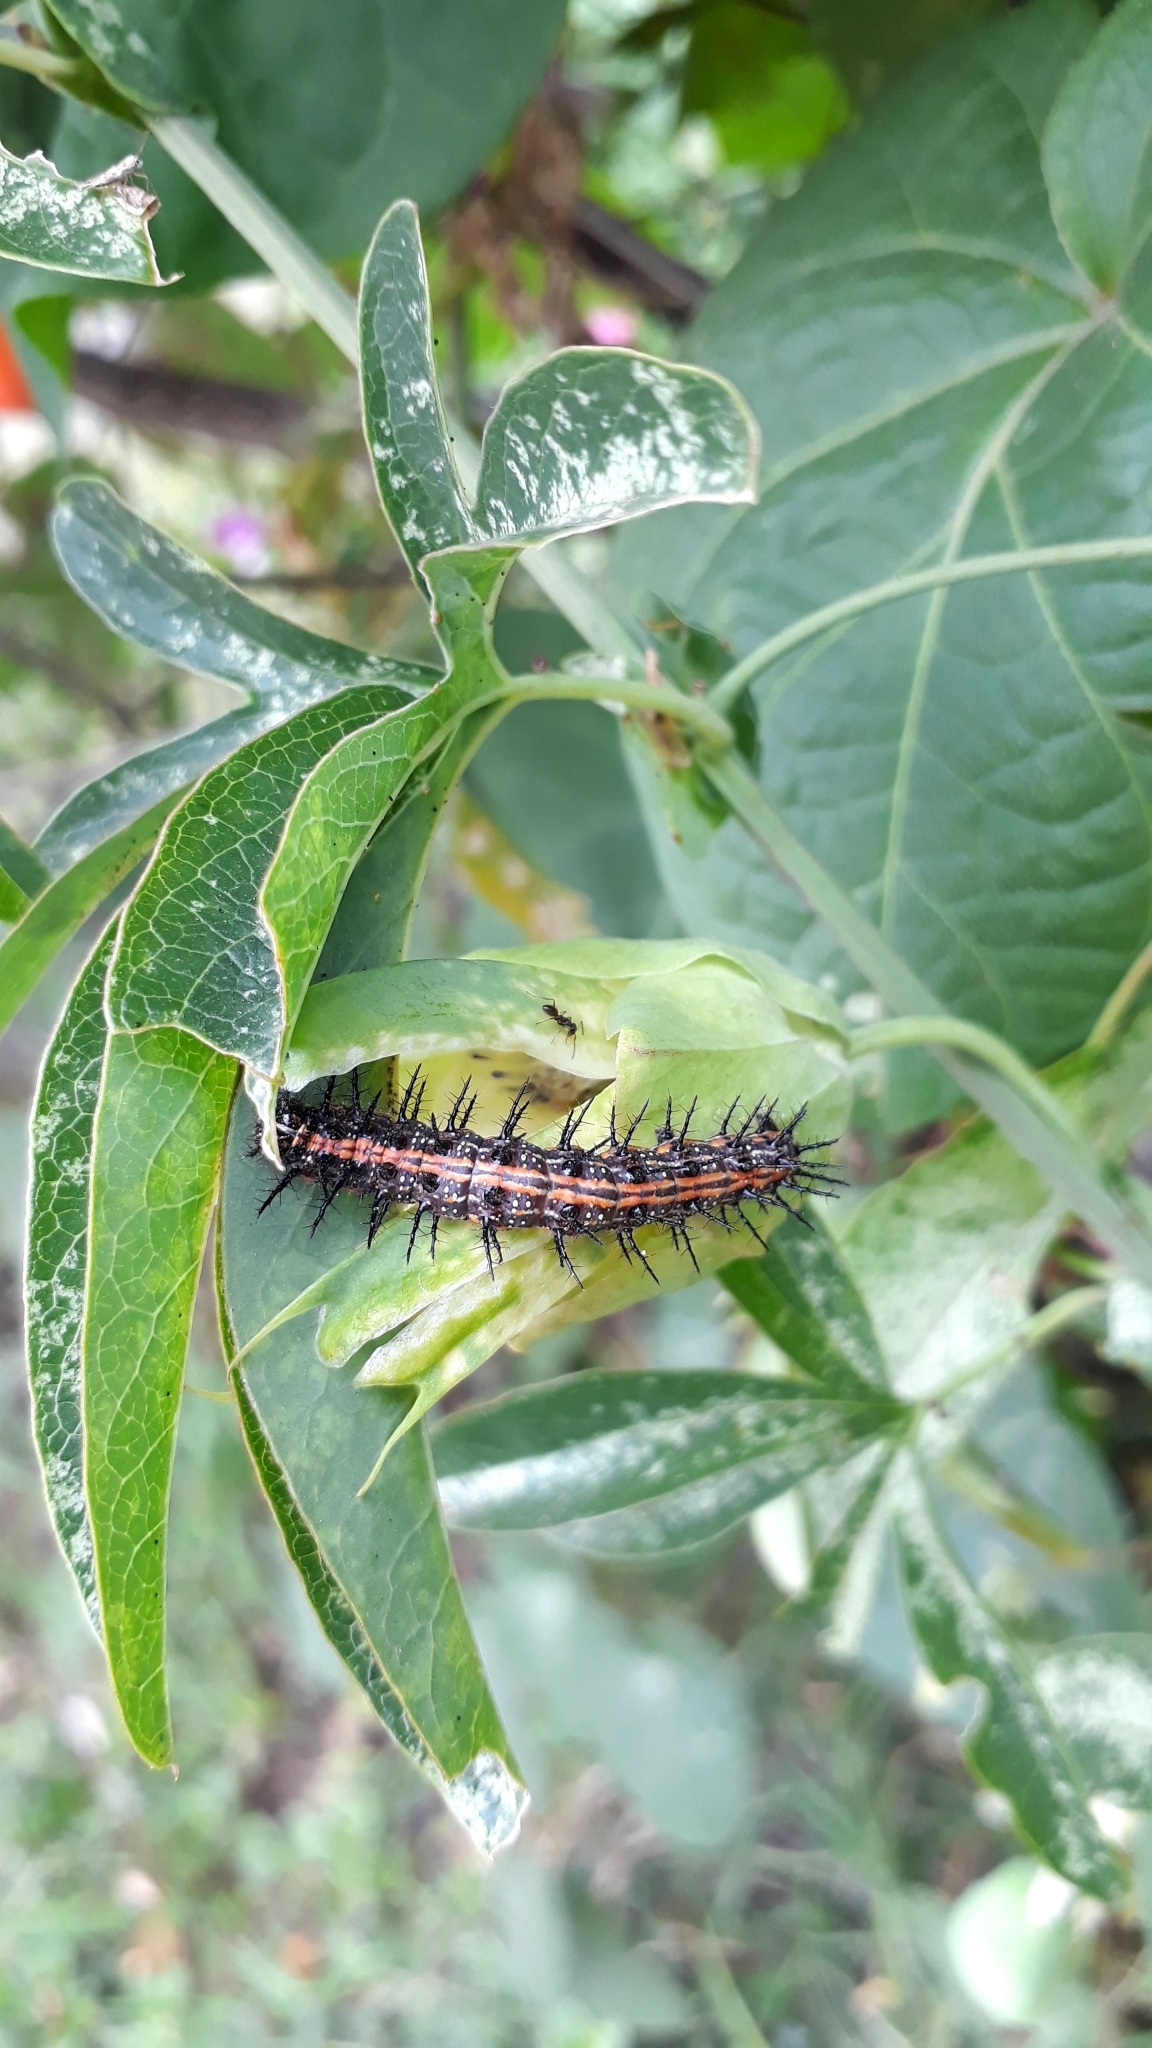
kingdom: Animalia
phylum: Arthropoda
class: Insecta
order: Lepidoptera
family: Nymphalidae
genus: Dione
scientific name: Dione vanillae
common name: Gulf fritillary
